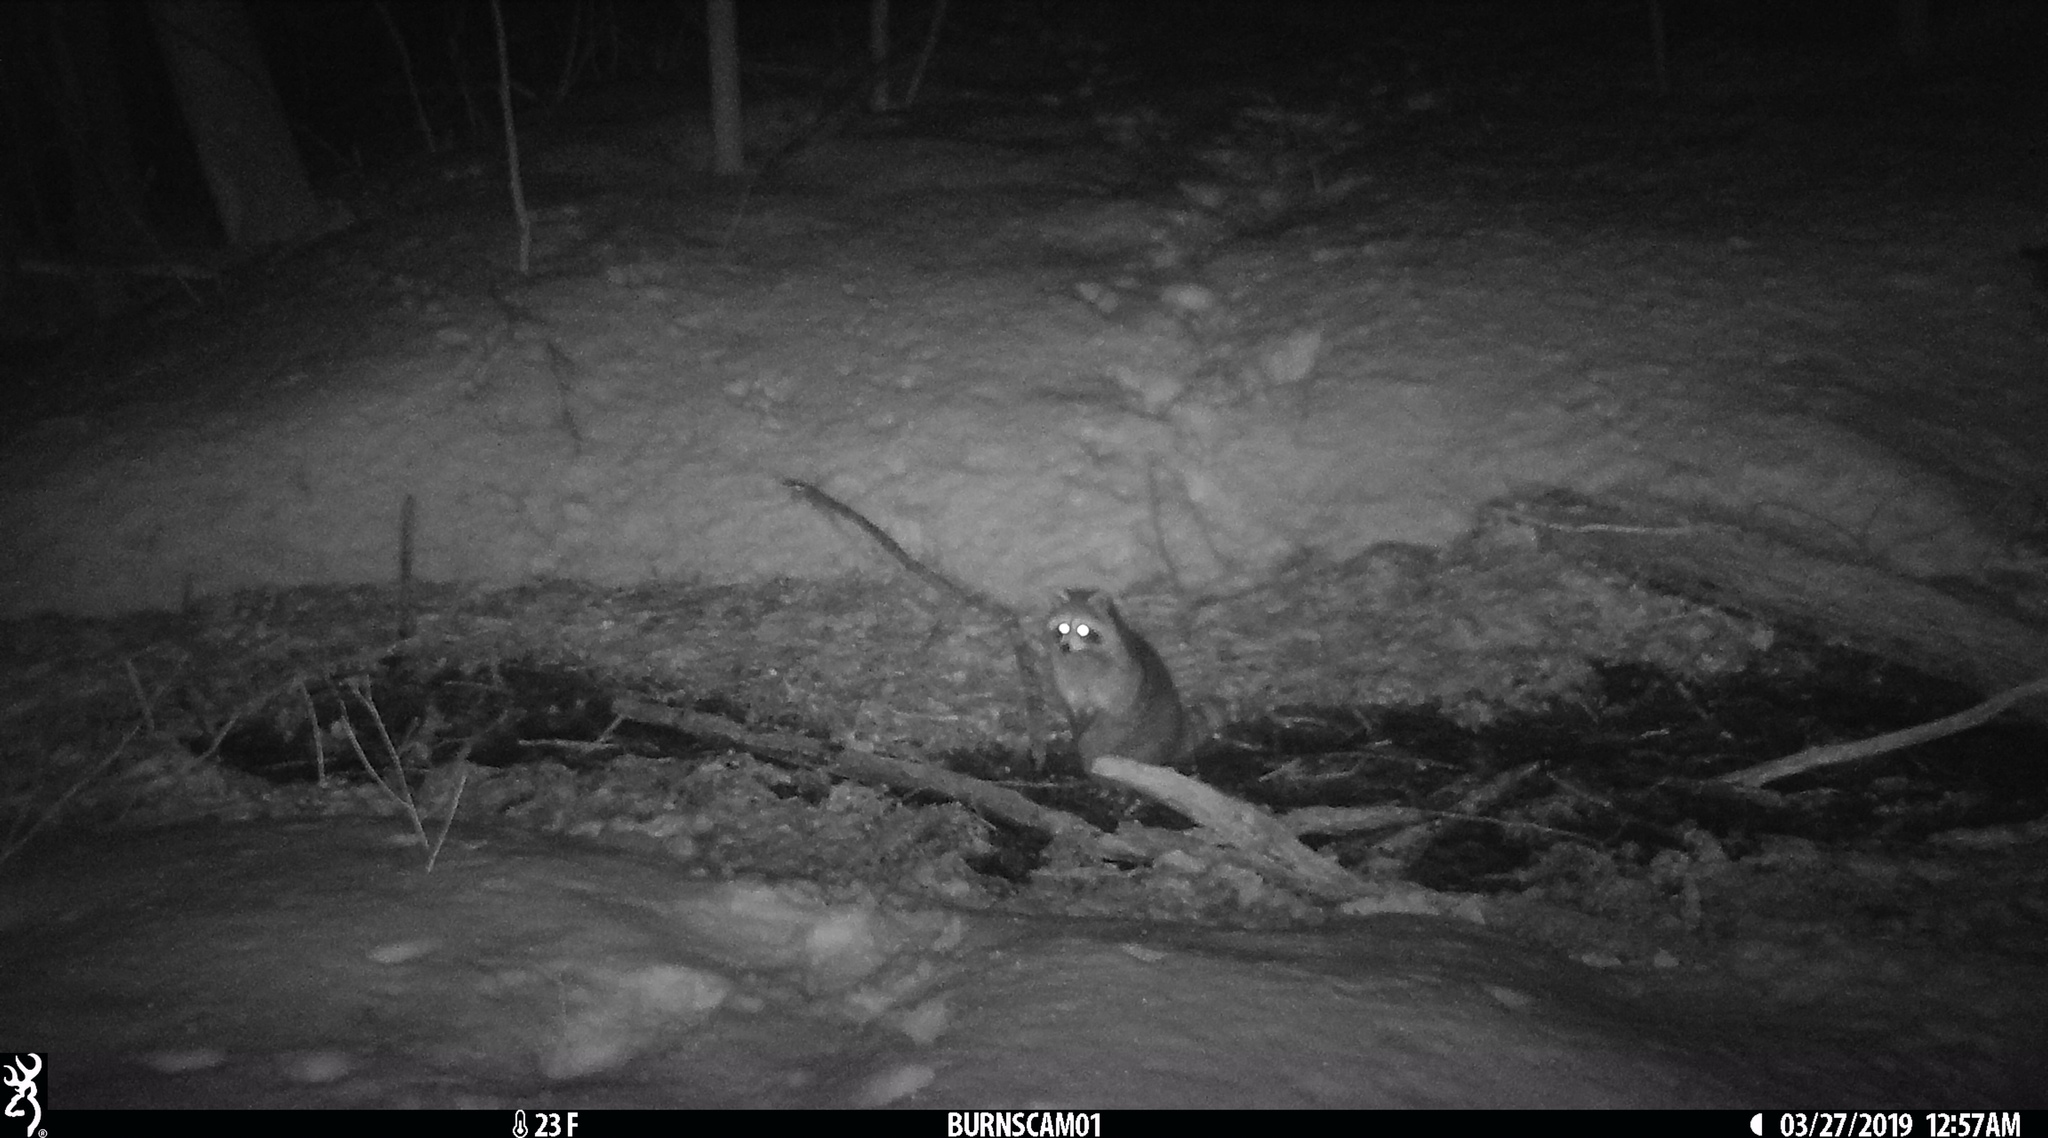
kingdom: Animalia
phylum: Chordata
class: Mammalia
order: Carnivora
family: Procyonidae
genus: Procyon
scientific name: Procyon lotor
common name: Raccoon
